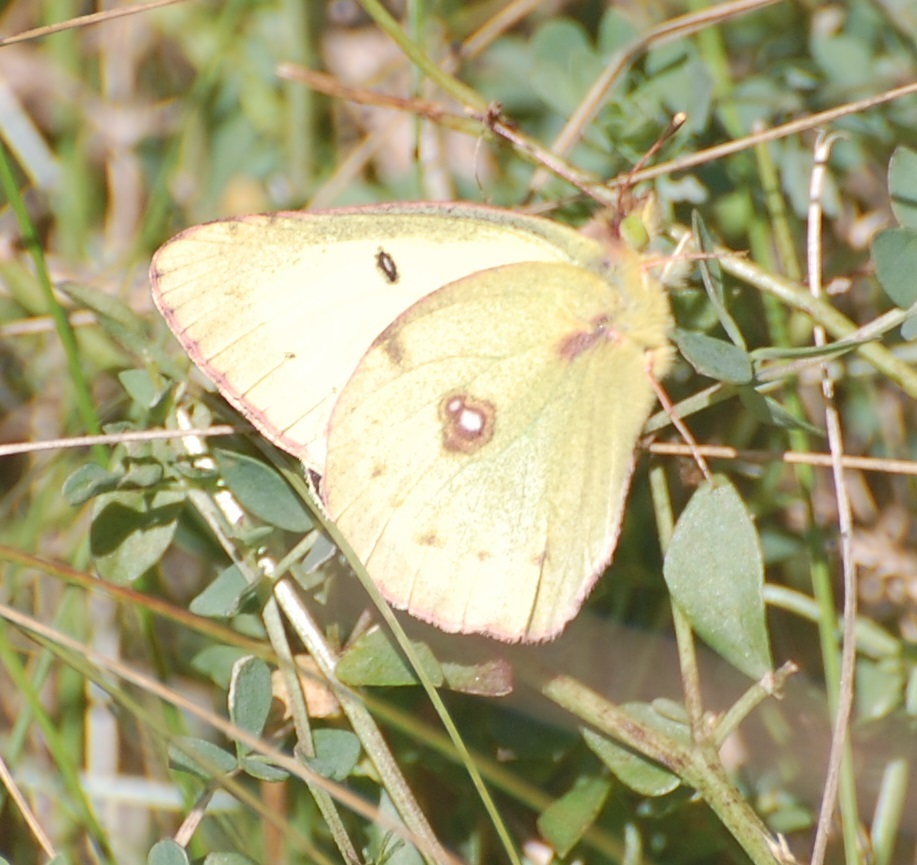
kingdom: Animalia
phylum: Arthropoda
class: Insecta
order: Lepidoptera
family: Pieridae
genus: Colias
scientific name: Colias philodice
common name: Clouded sulphur
